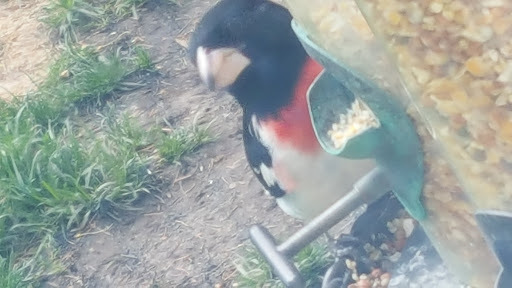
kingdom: Animalia
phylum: Chordata
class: Aves
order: Passeriformes
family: Cardinalidae
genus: Pheucticus
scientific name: Pheucticus ludovicianus
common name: Rose-breasted grosbeak
